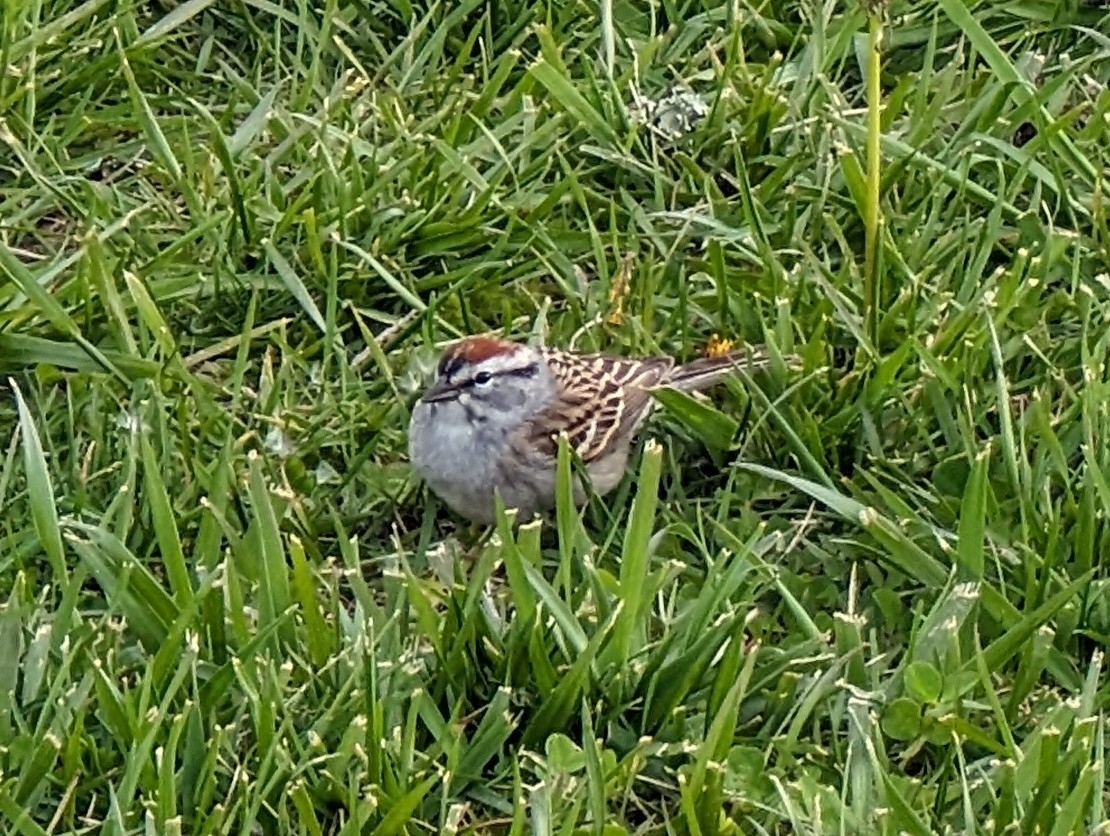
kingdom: Animalia
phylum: Chordata
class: Aves
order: Passeriformes
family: Passerellidae
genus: Spizella
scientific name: Spizella passerina
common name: Chipping sparrow
